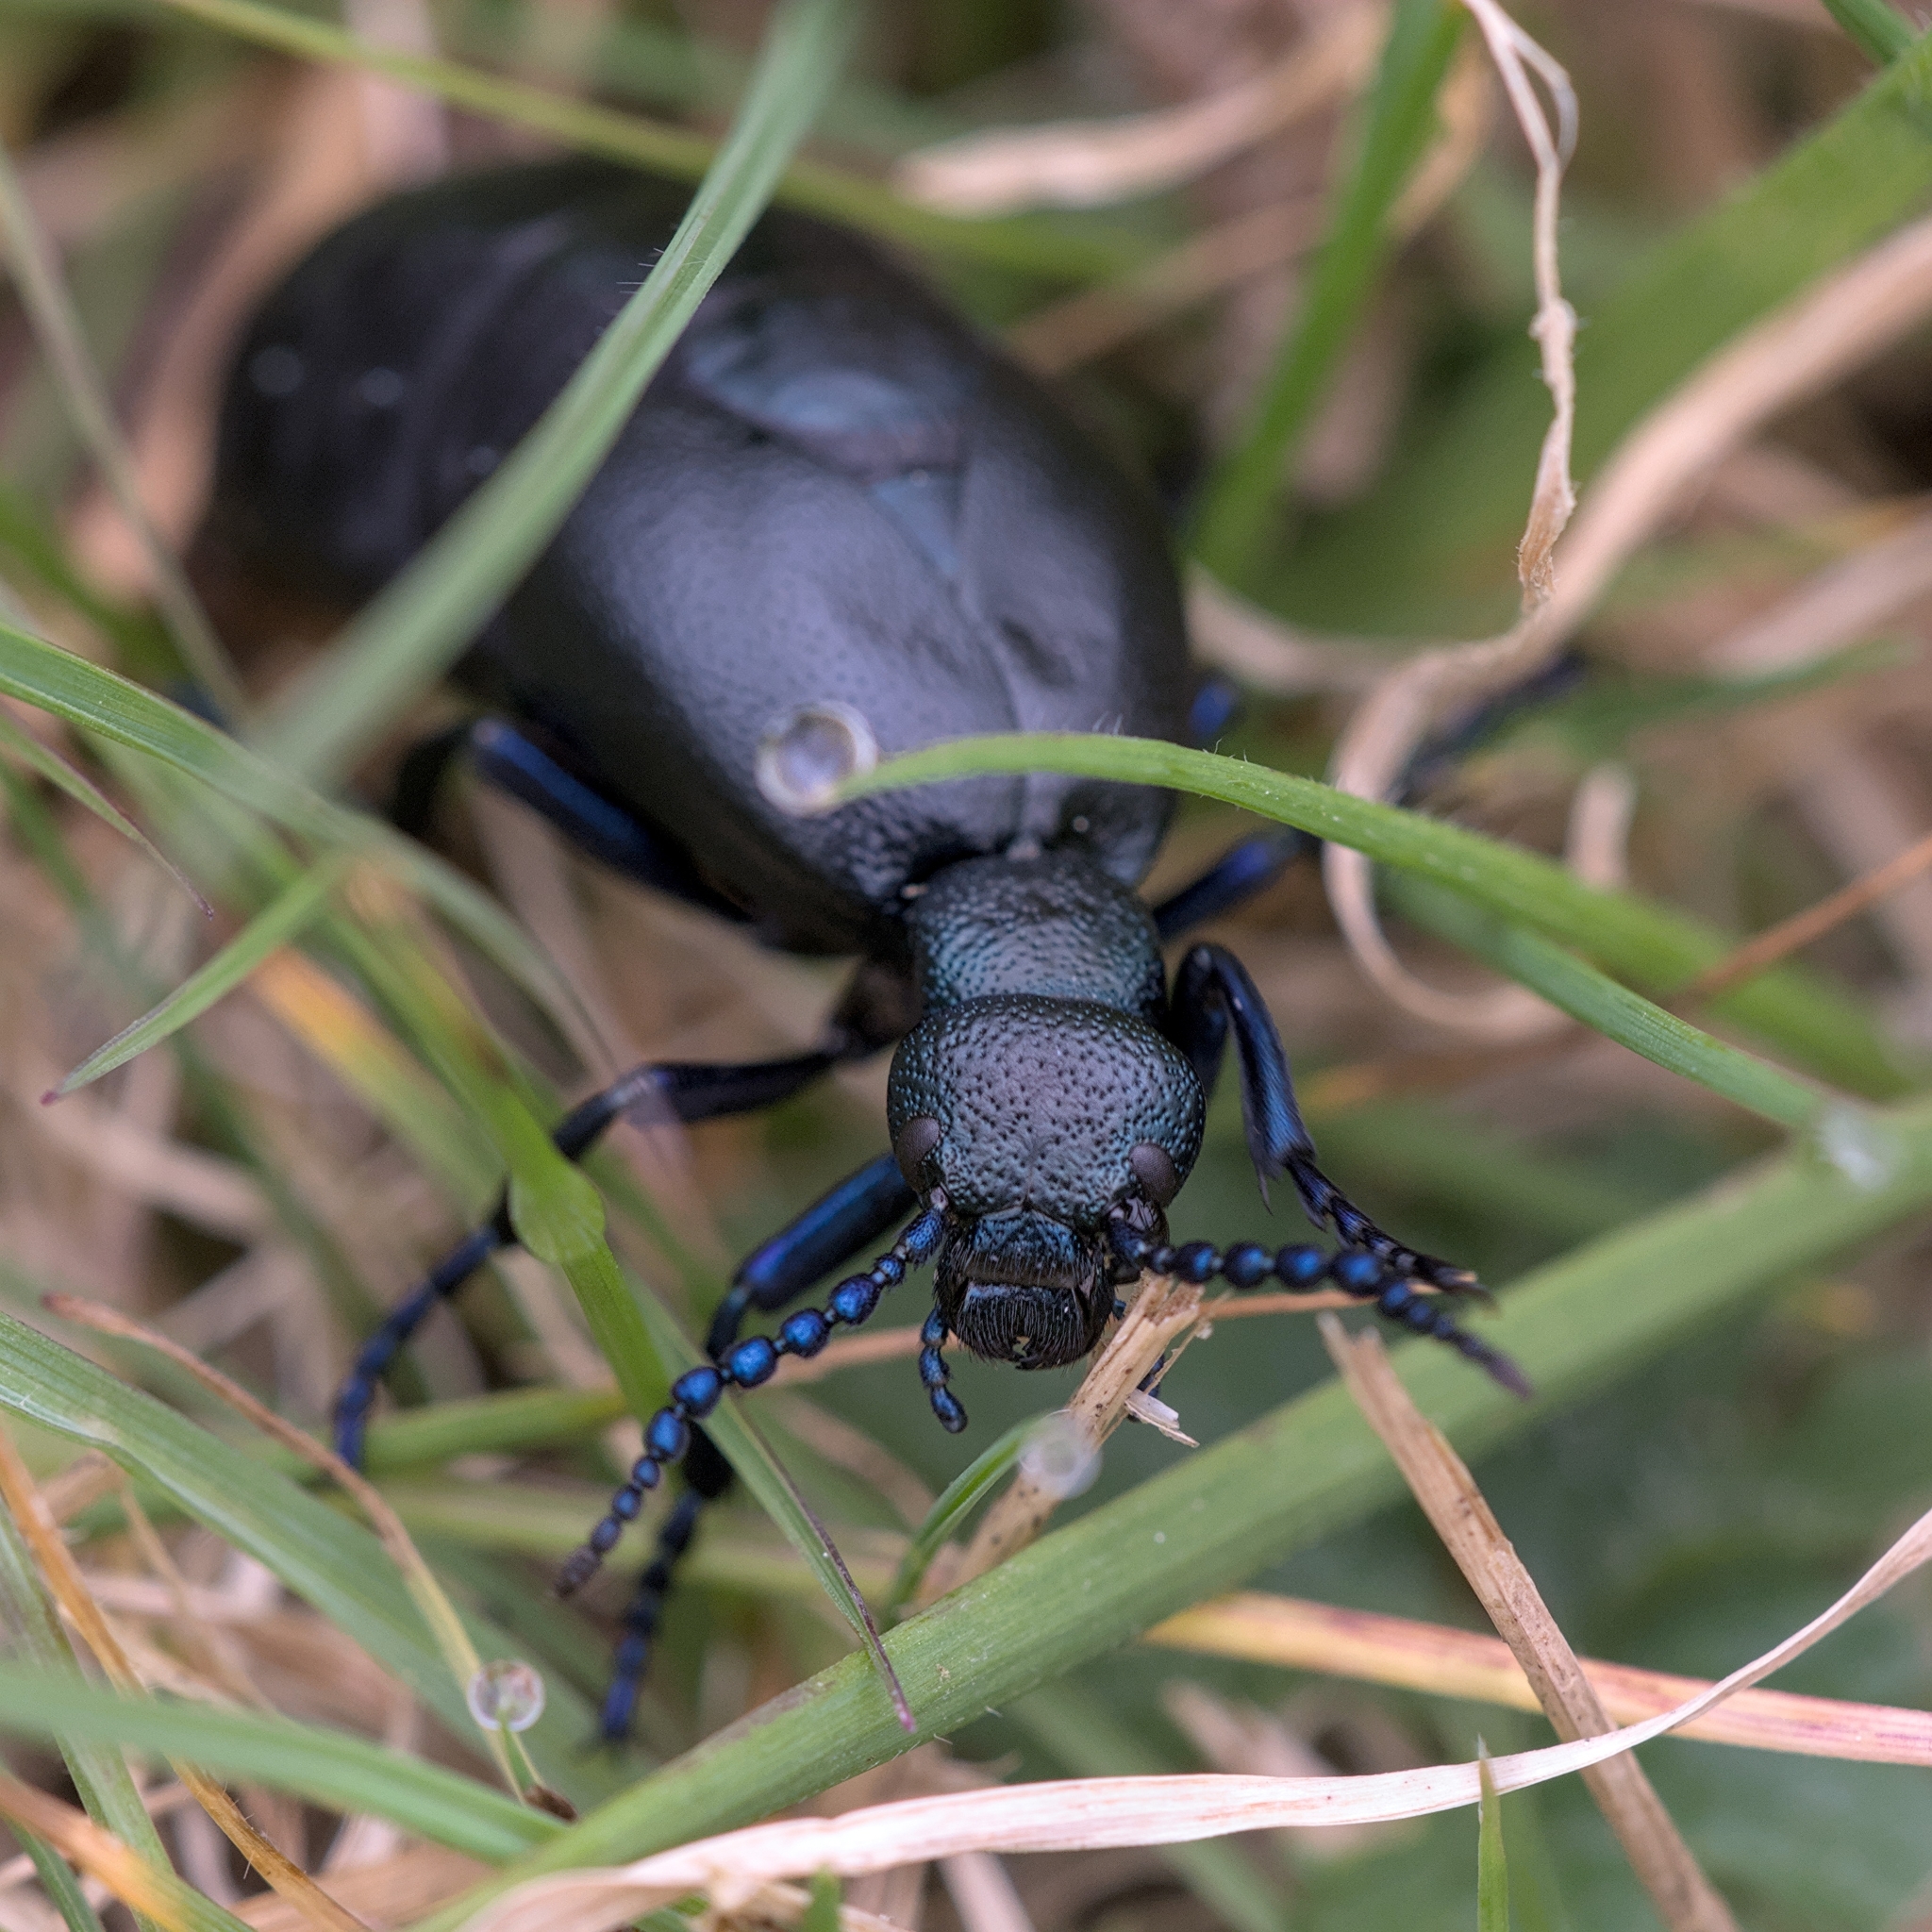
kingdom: Animalia
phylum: Arthropoda
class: Insecta
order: Coleoptera
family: Meloidae
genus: Meloe
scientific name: Meloe proscarabaeus
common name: Black oil-beetle
